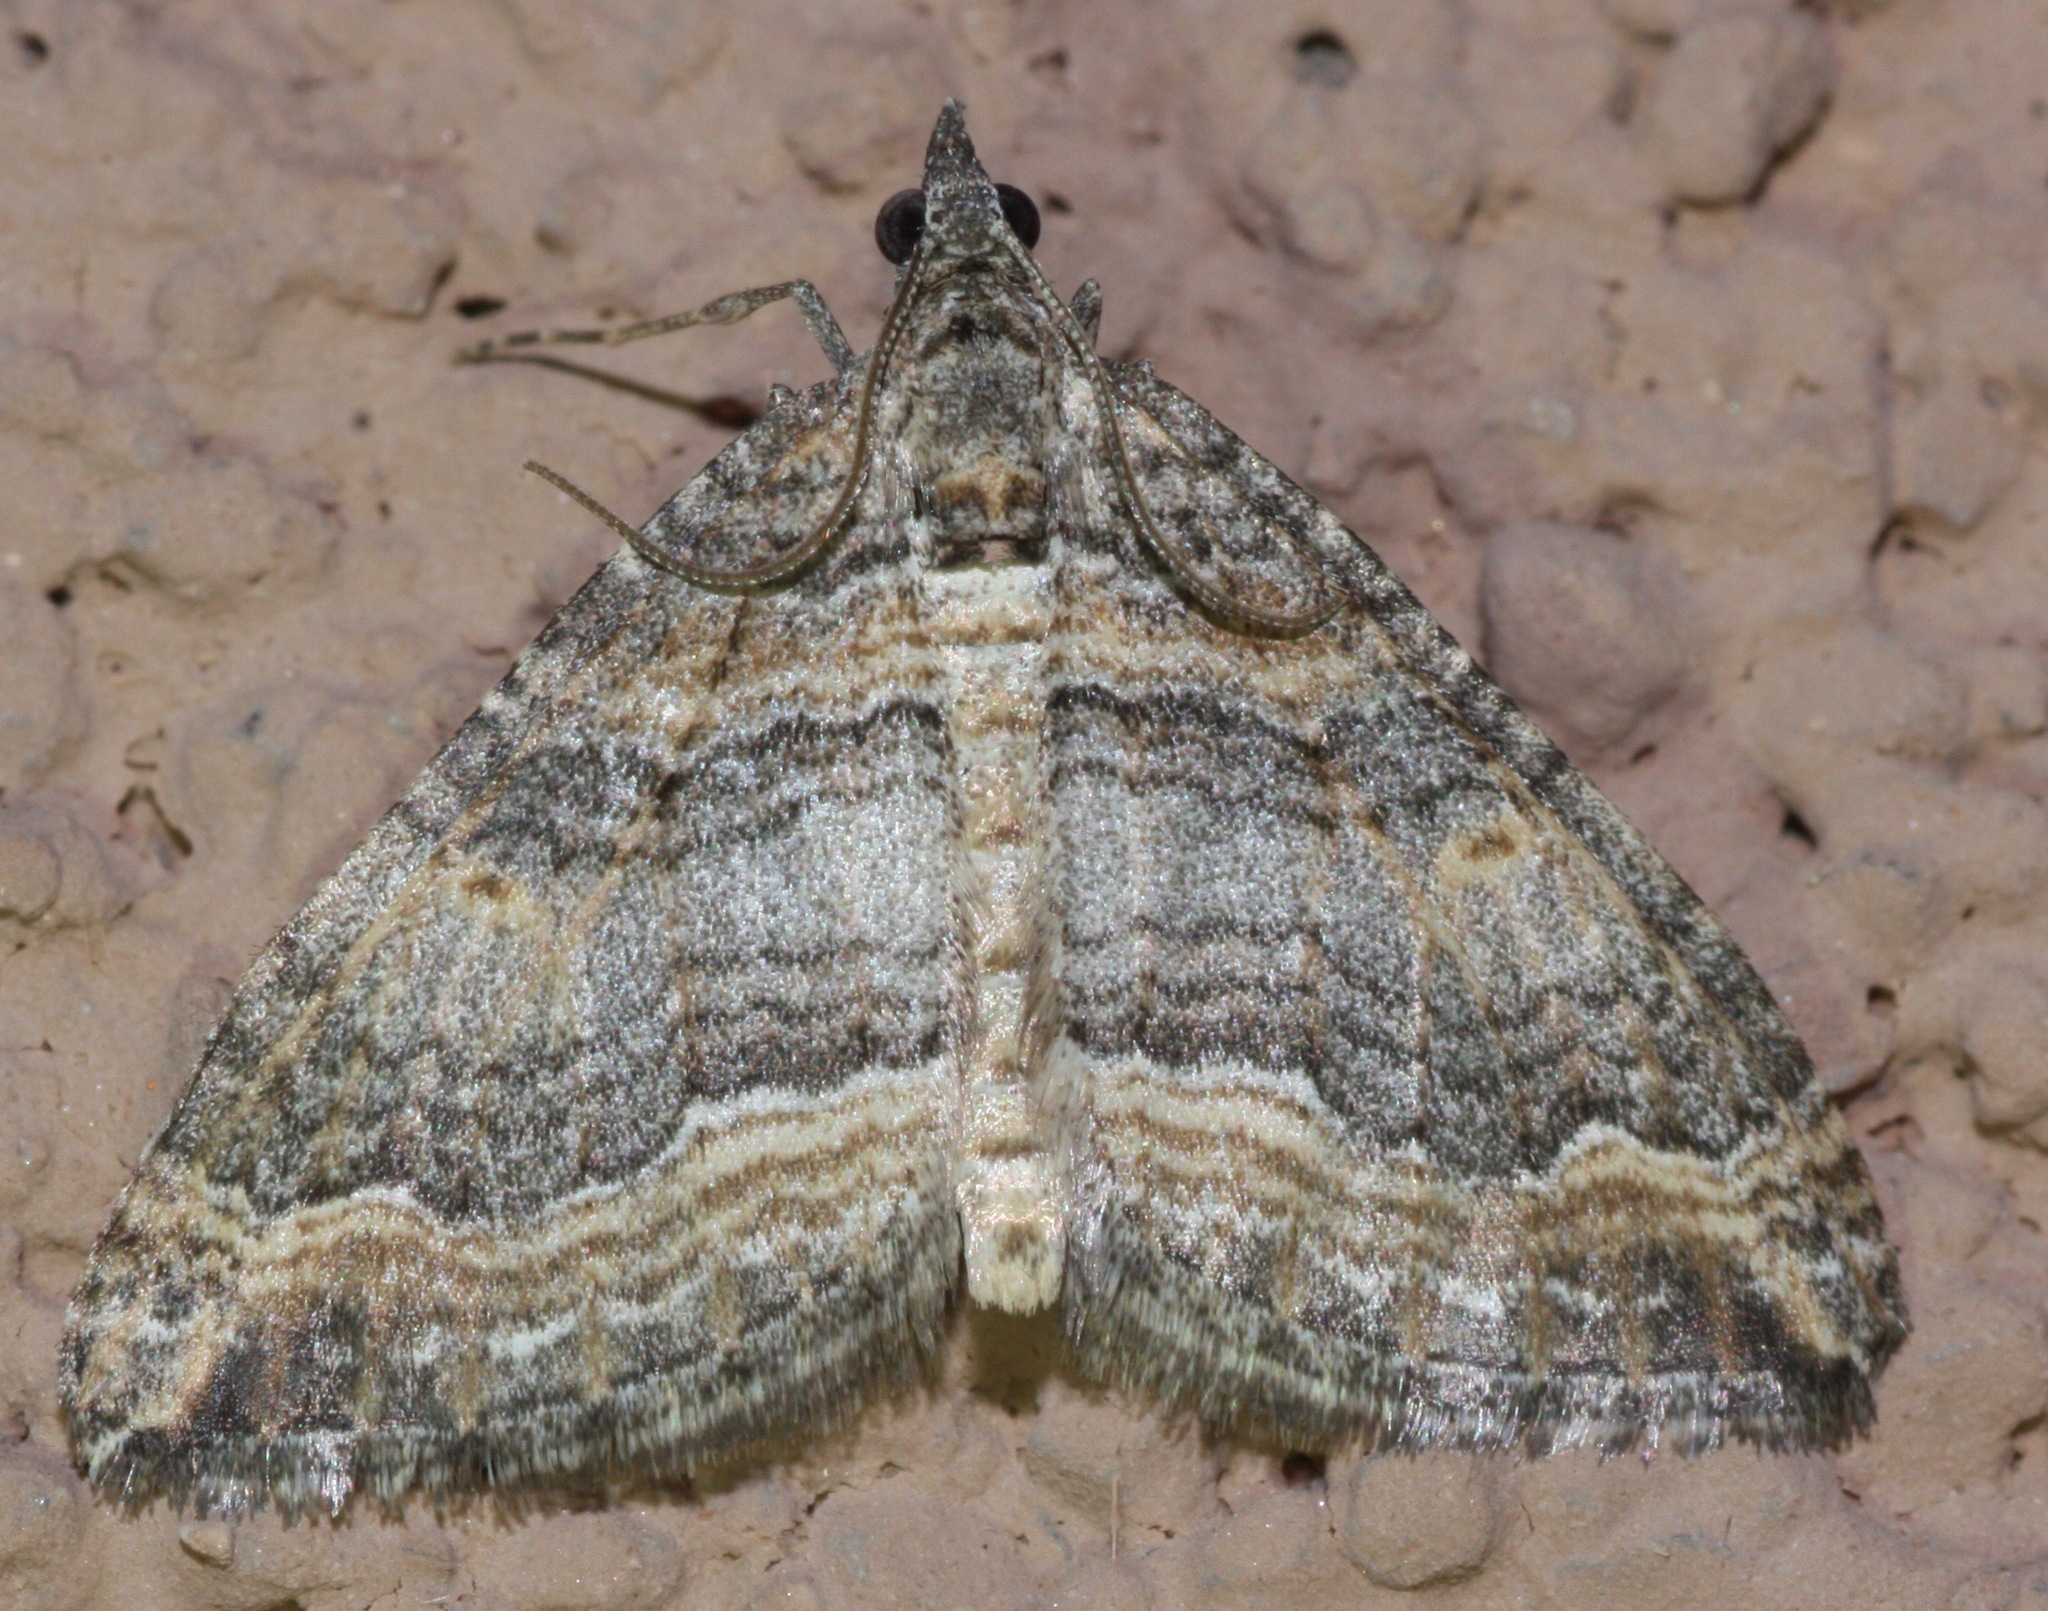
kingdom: Animalia
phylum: Arthropoda
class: Insecta
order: Lepidoptera
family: Geometridae
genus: Perizoma
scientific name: Perizoma custodiata
